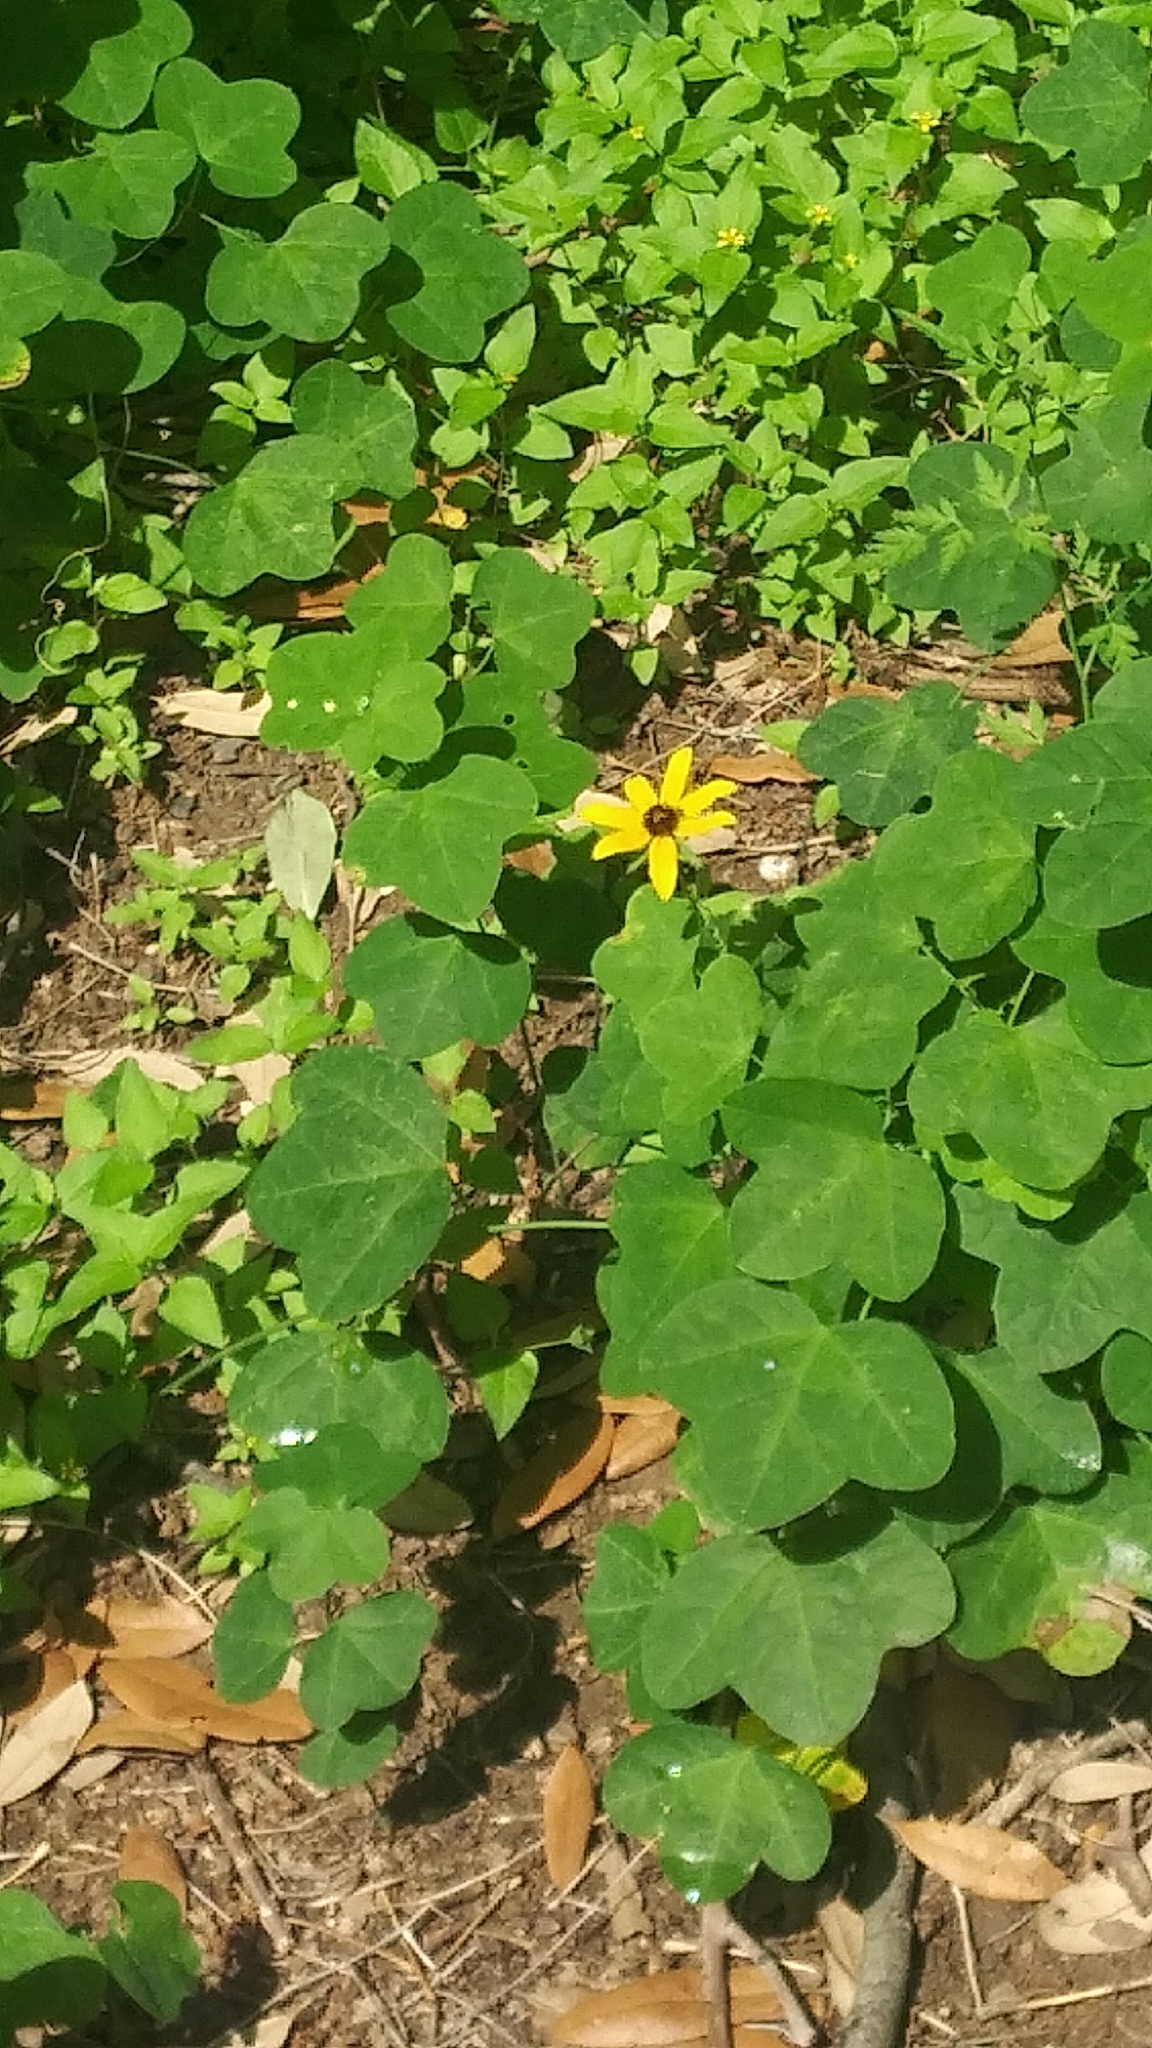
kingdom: Plantae
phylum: Tracheophyta
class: Magnoliopsida
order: Malpighiales
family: Passifloraceae
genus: Passiflora
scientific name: Passiflora lutea
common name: Yellow passionflower
